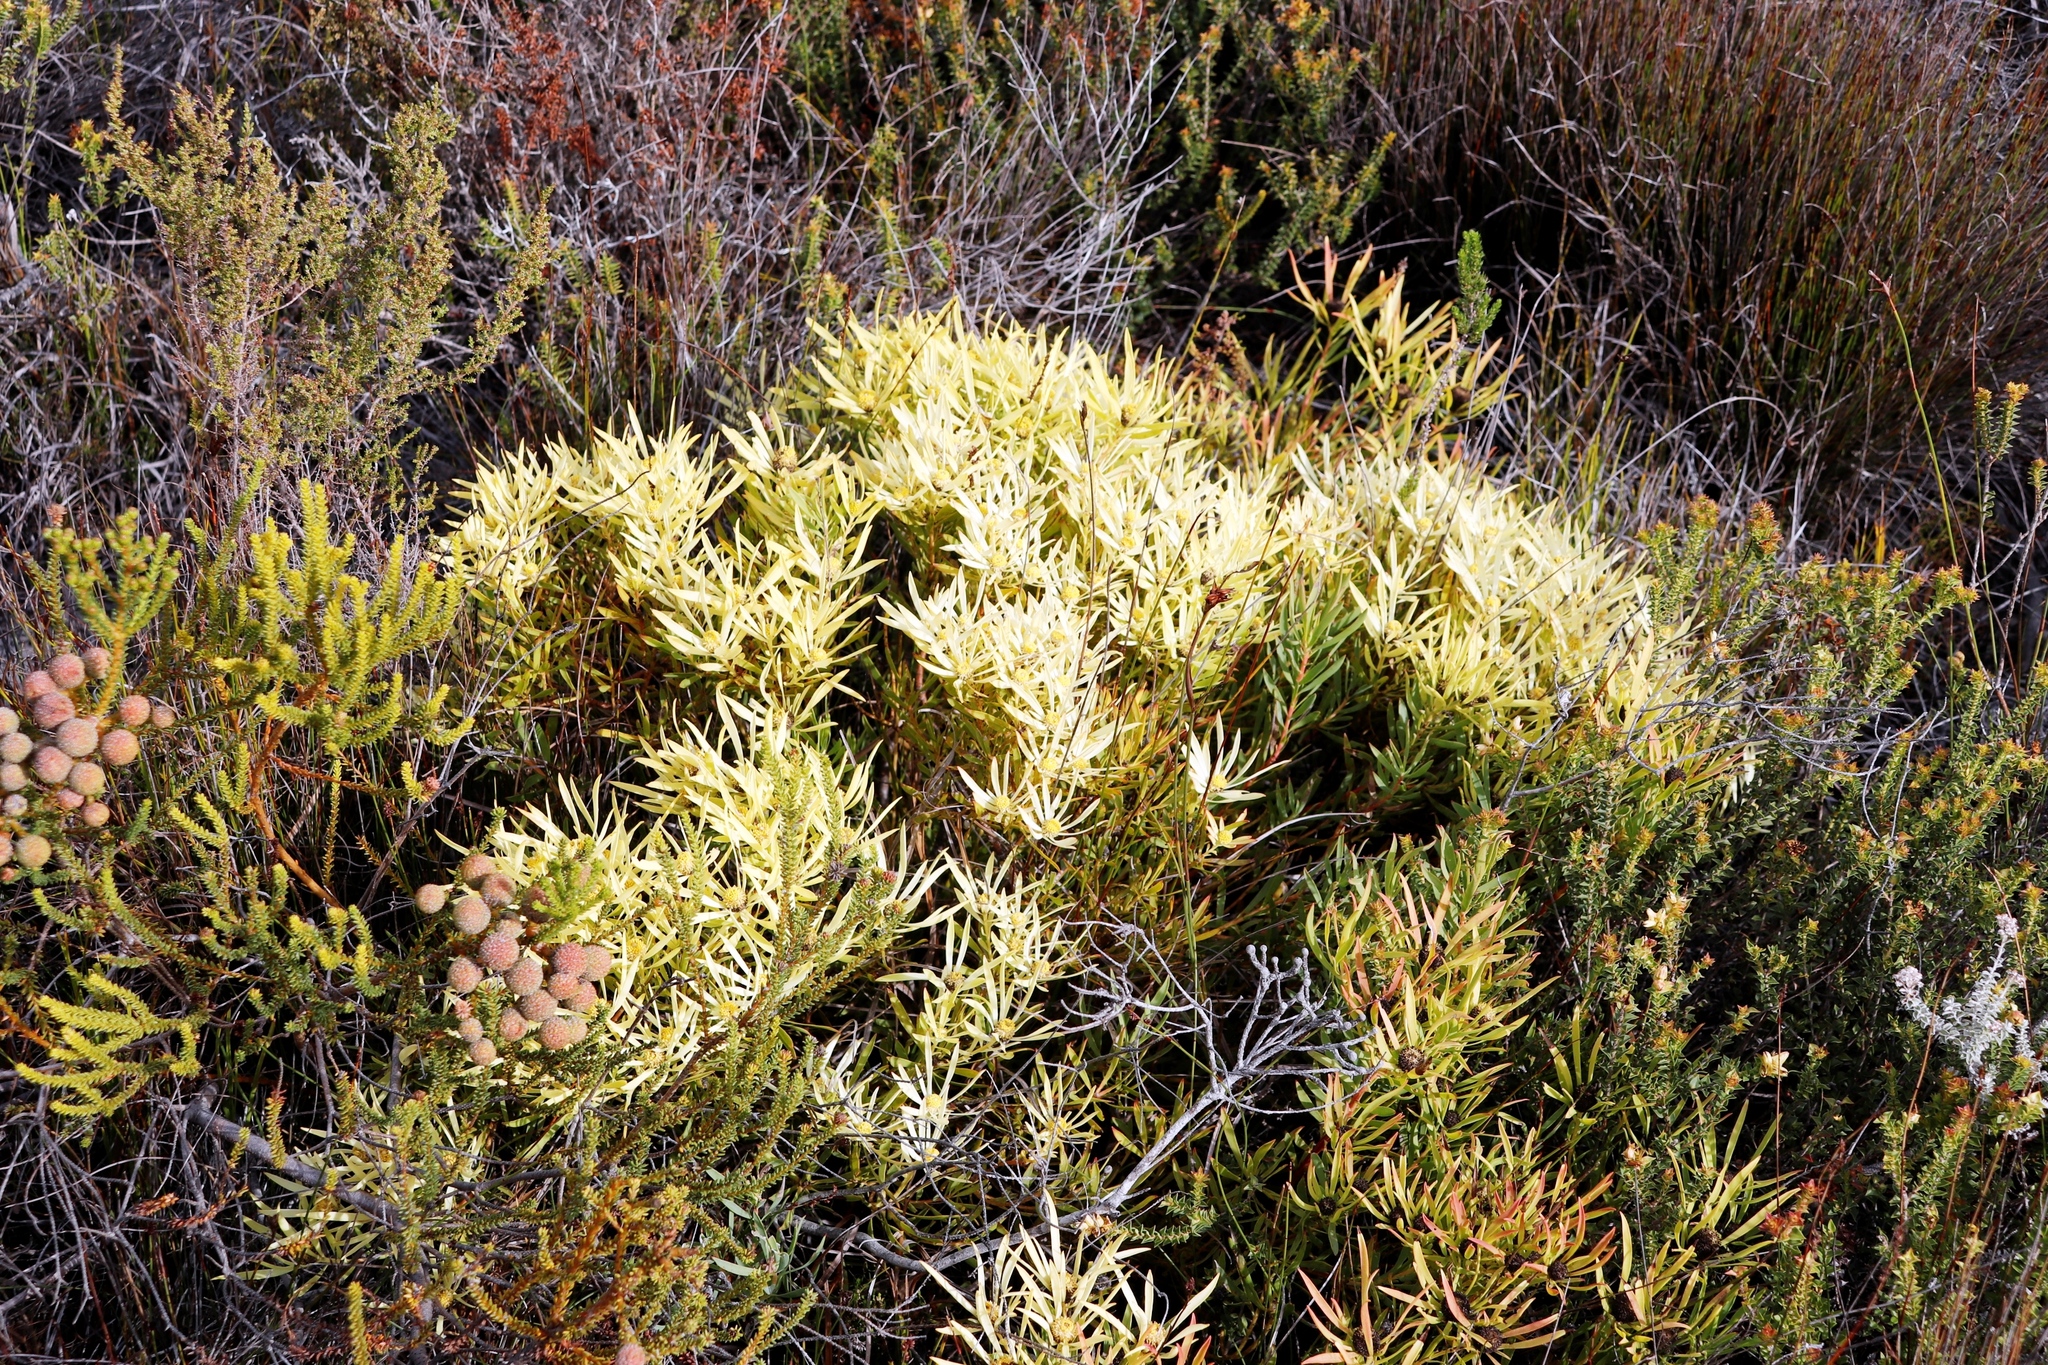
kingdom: Plantae
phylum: Tracheophyta
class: Magnoliopsida
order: Proteales
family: Proteaceae
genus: Leucadendron
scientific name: Leucadendron salignum
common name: Common sunshine conebush
